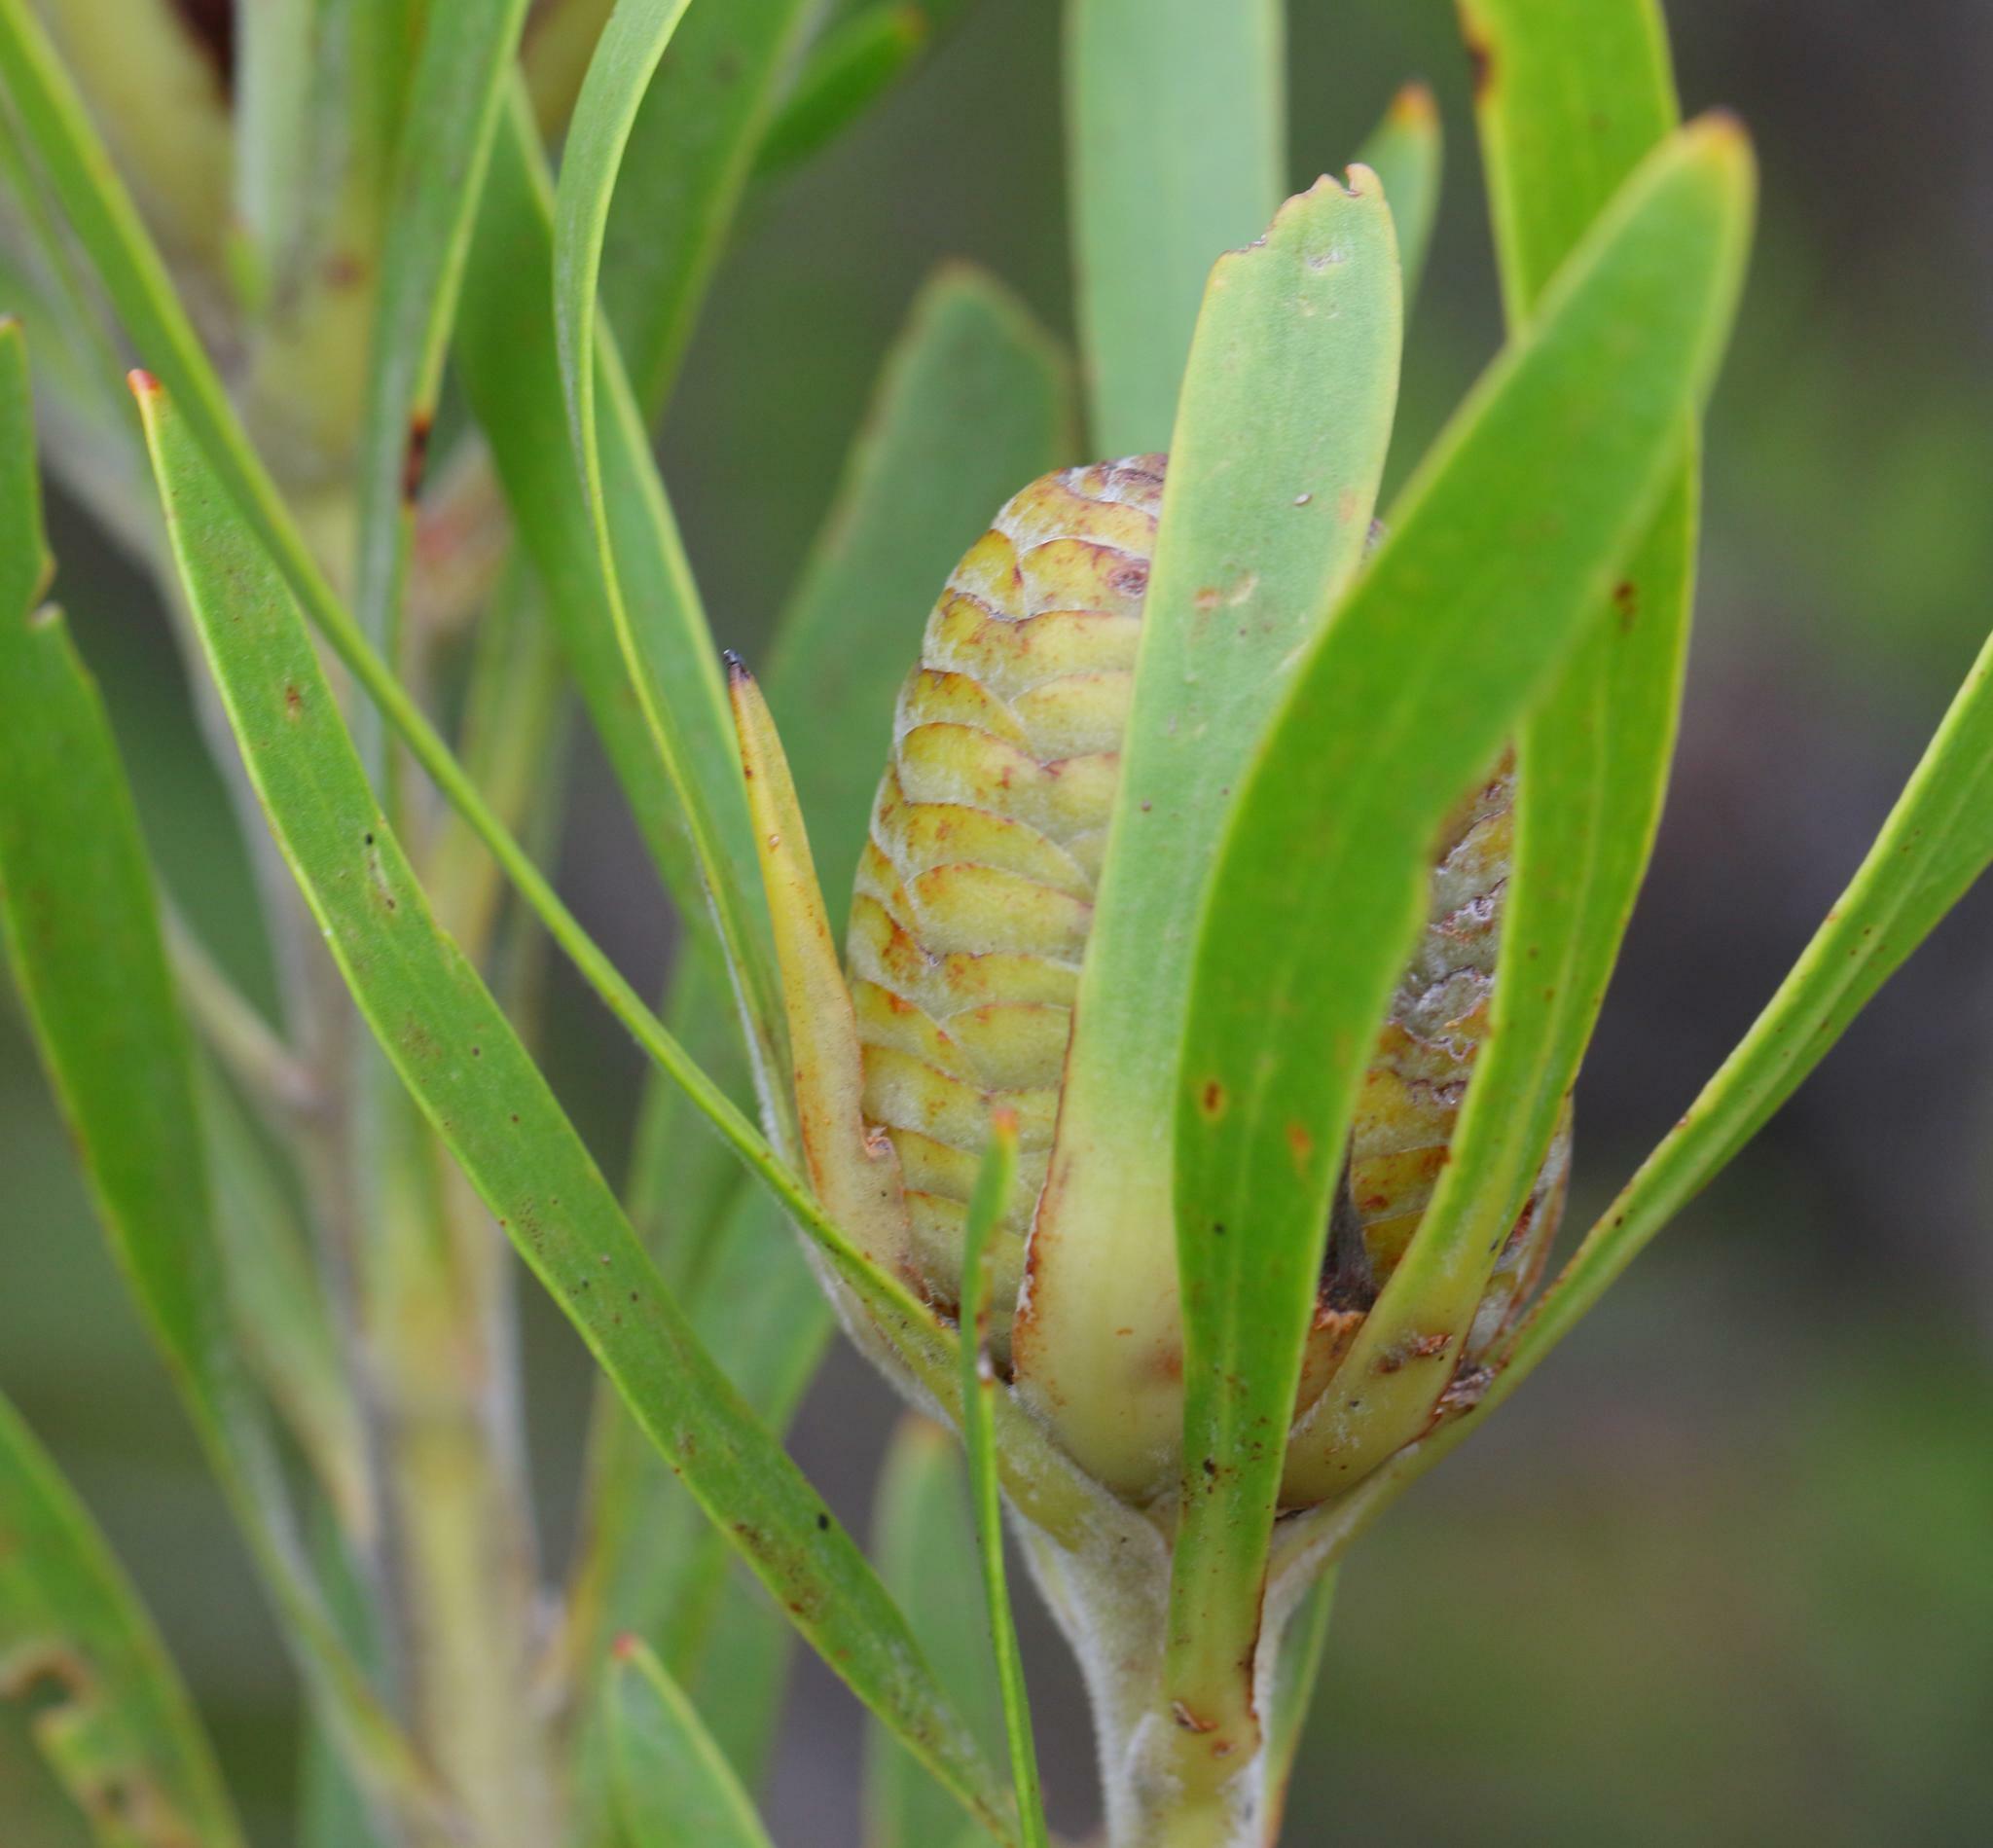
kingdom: Plantae
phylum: Tracheophyta
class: Magnoliopsida
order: Proteales
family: Proteaceae
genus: Leucadendron
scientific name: Leucadendron eucalyptifolium
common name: Gum-leaved conebush
